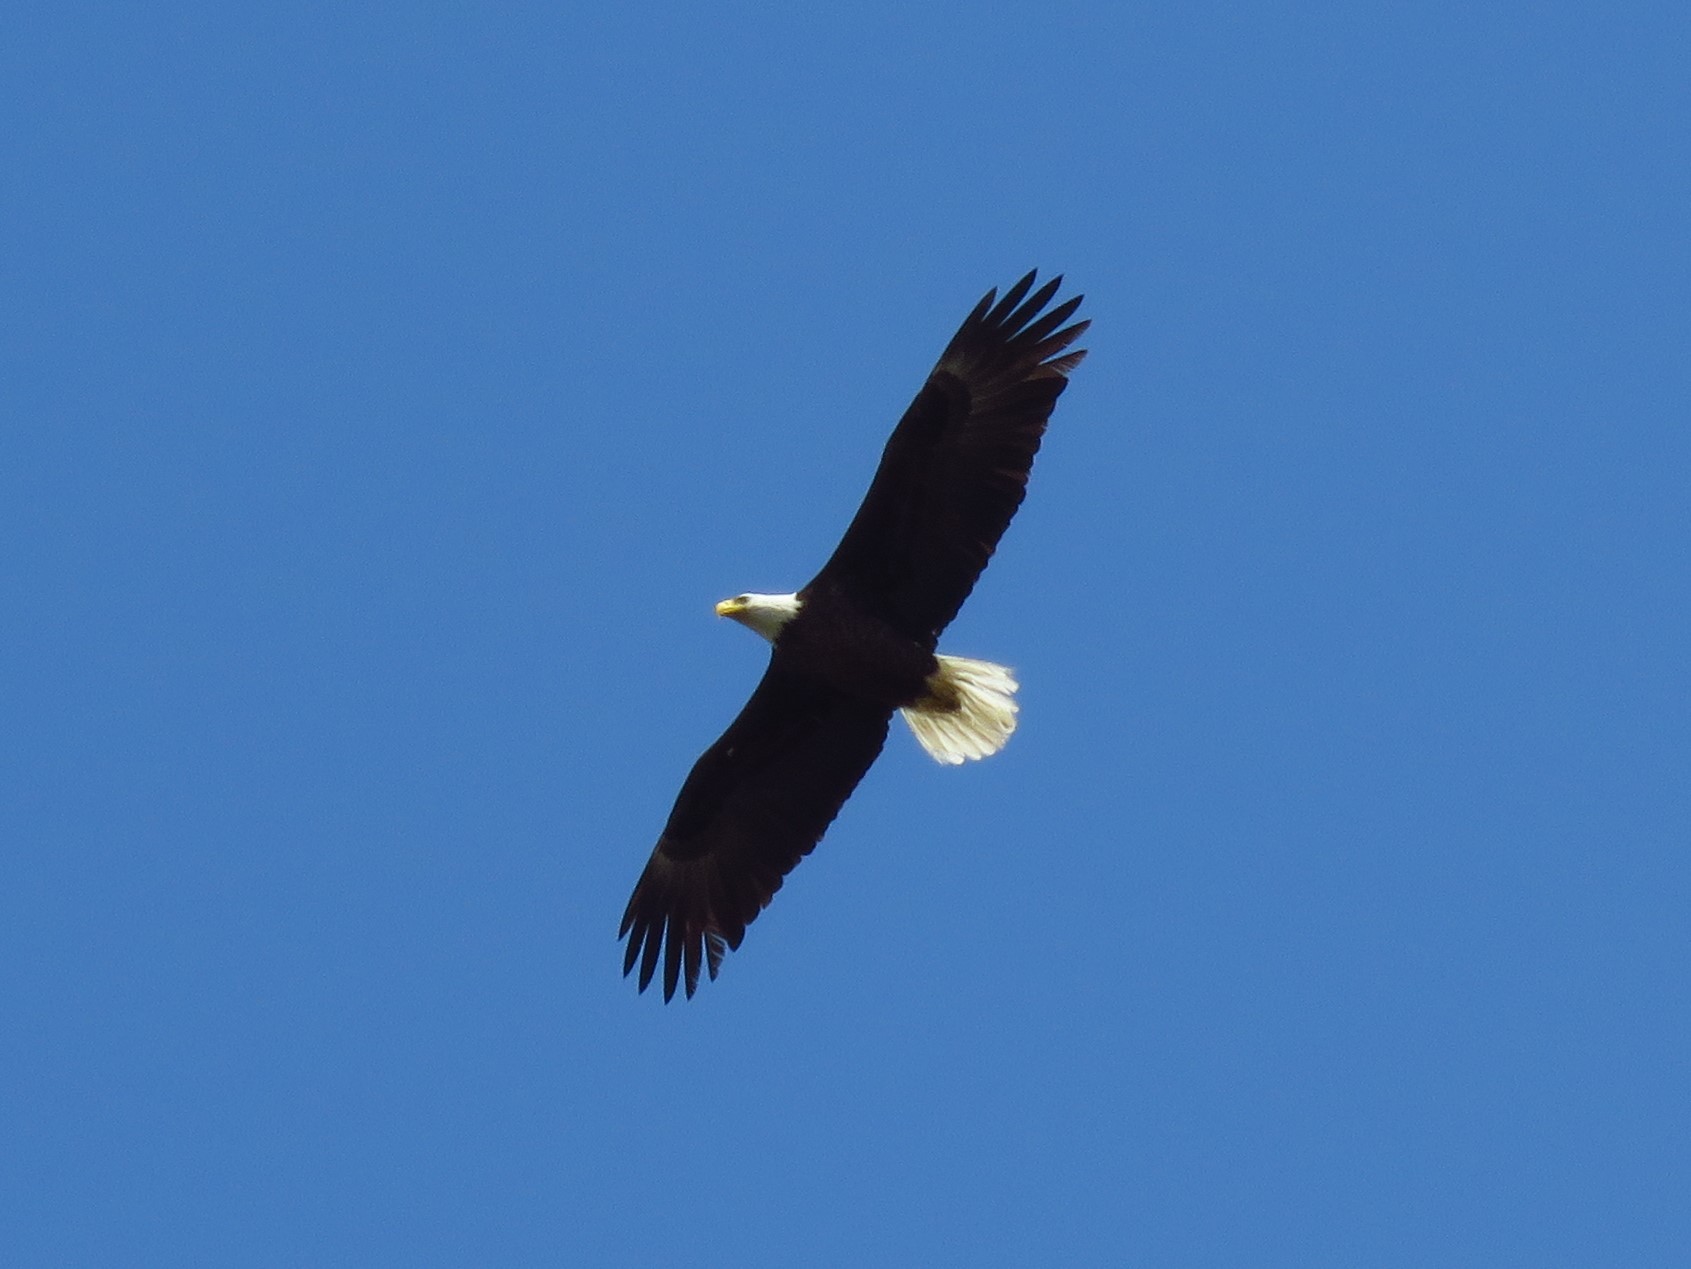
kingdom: Animalia
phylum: Chordata
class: Aves
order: Accipitriformes
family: Accipitridae
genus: Haliaeetus
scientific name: Haliaeetus leucocephalus
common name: Bald eagle
